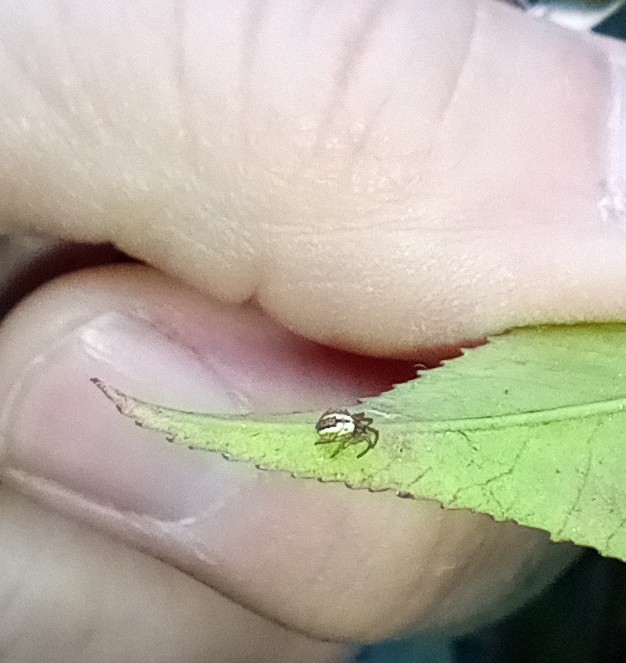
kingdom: Animalia
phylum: Arthropoda
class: Arachnida
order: Araneae
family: Araneidae
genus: Mangora
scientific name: Mangora acalypha
